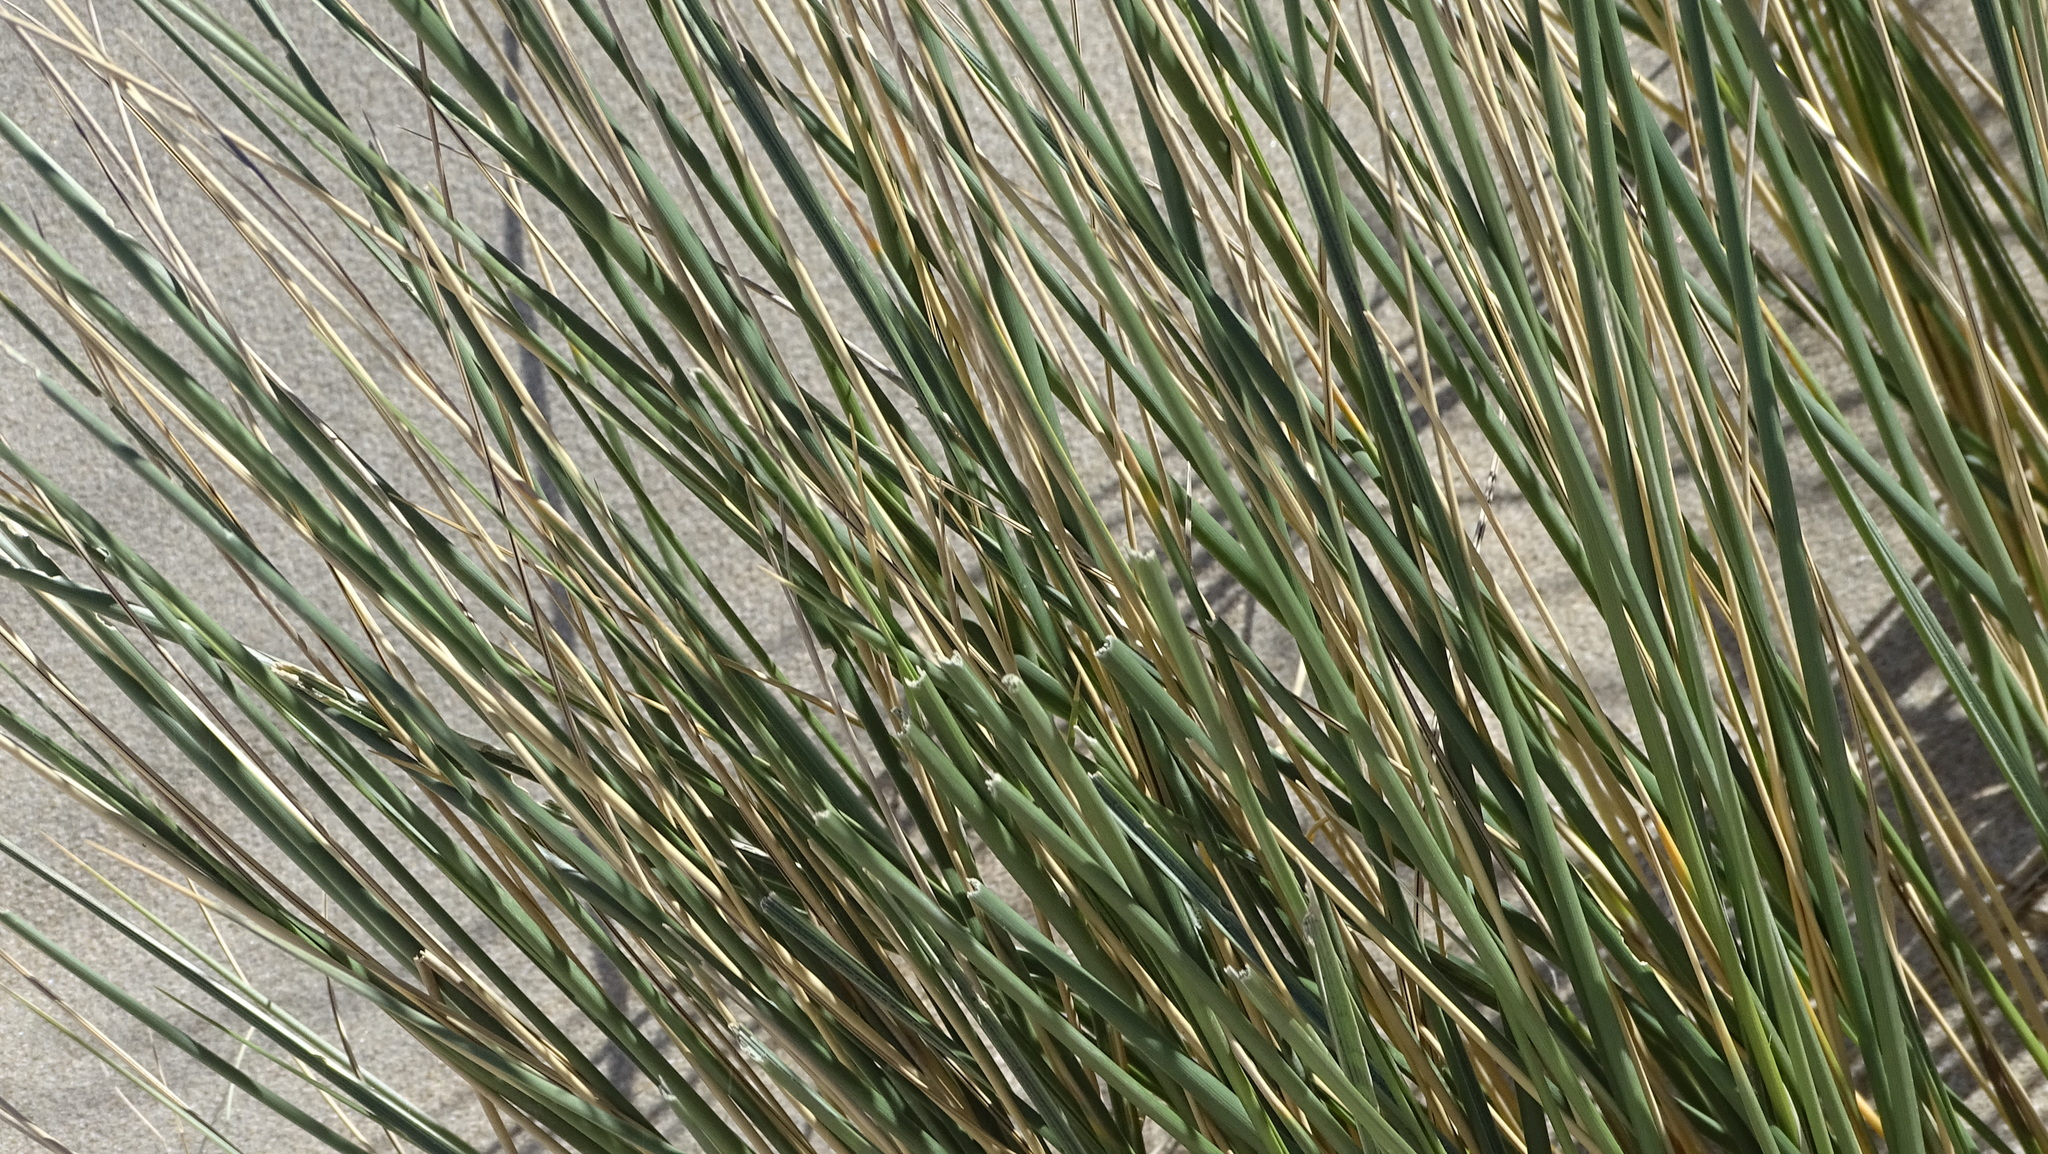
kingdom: Plantae
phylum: Tracheophyta
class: Liliopsida
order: Poales
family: Poaceae
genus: Calamagrostis
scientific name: Calamagrostis arenaria
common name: European beachgrass
